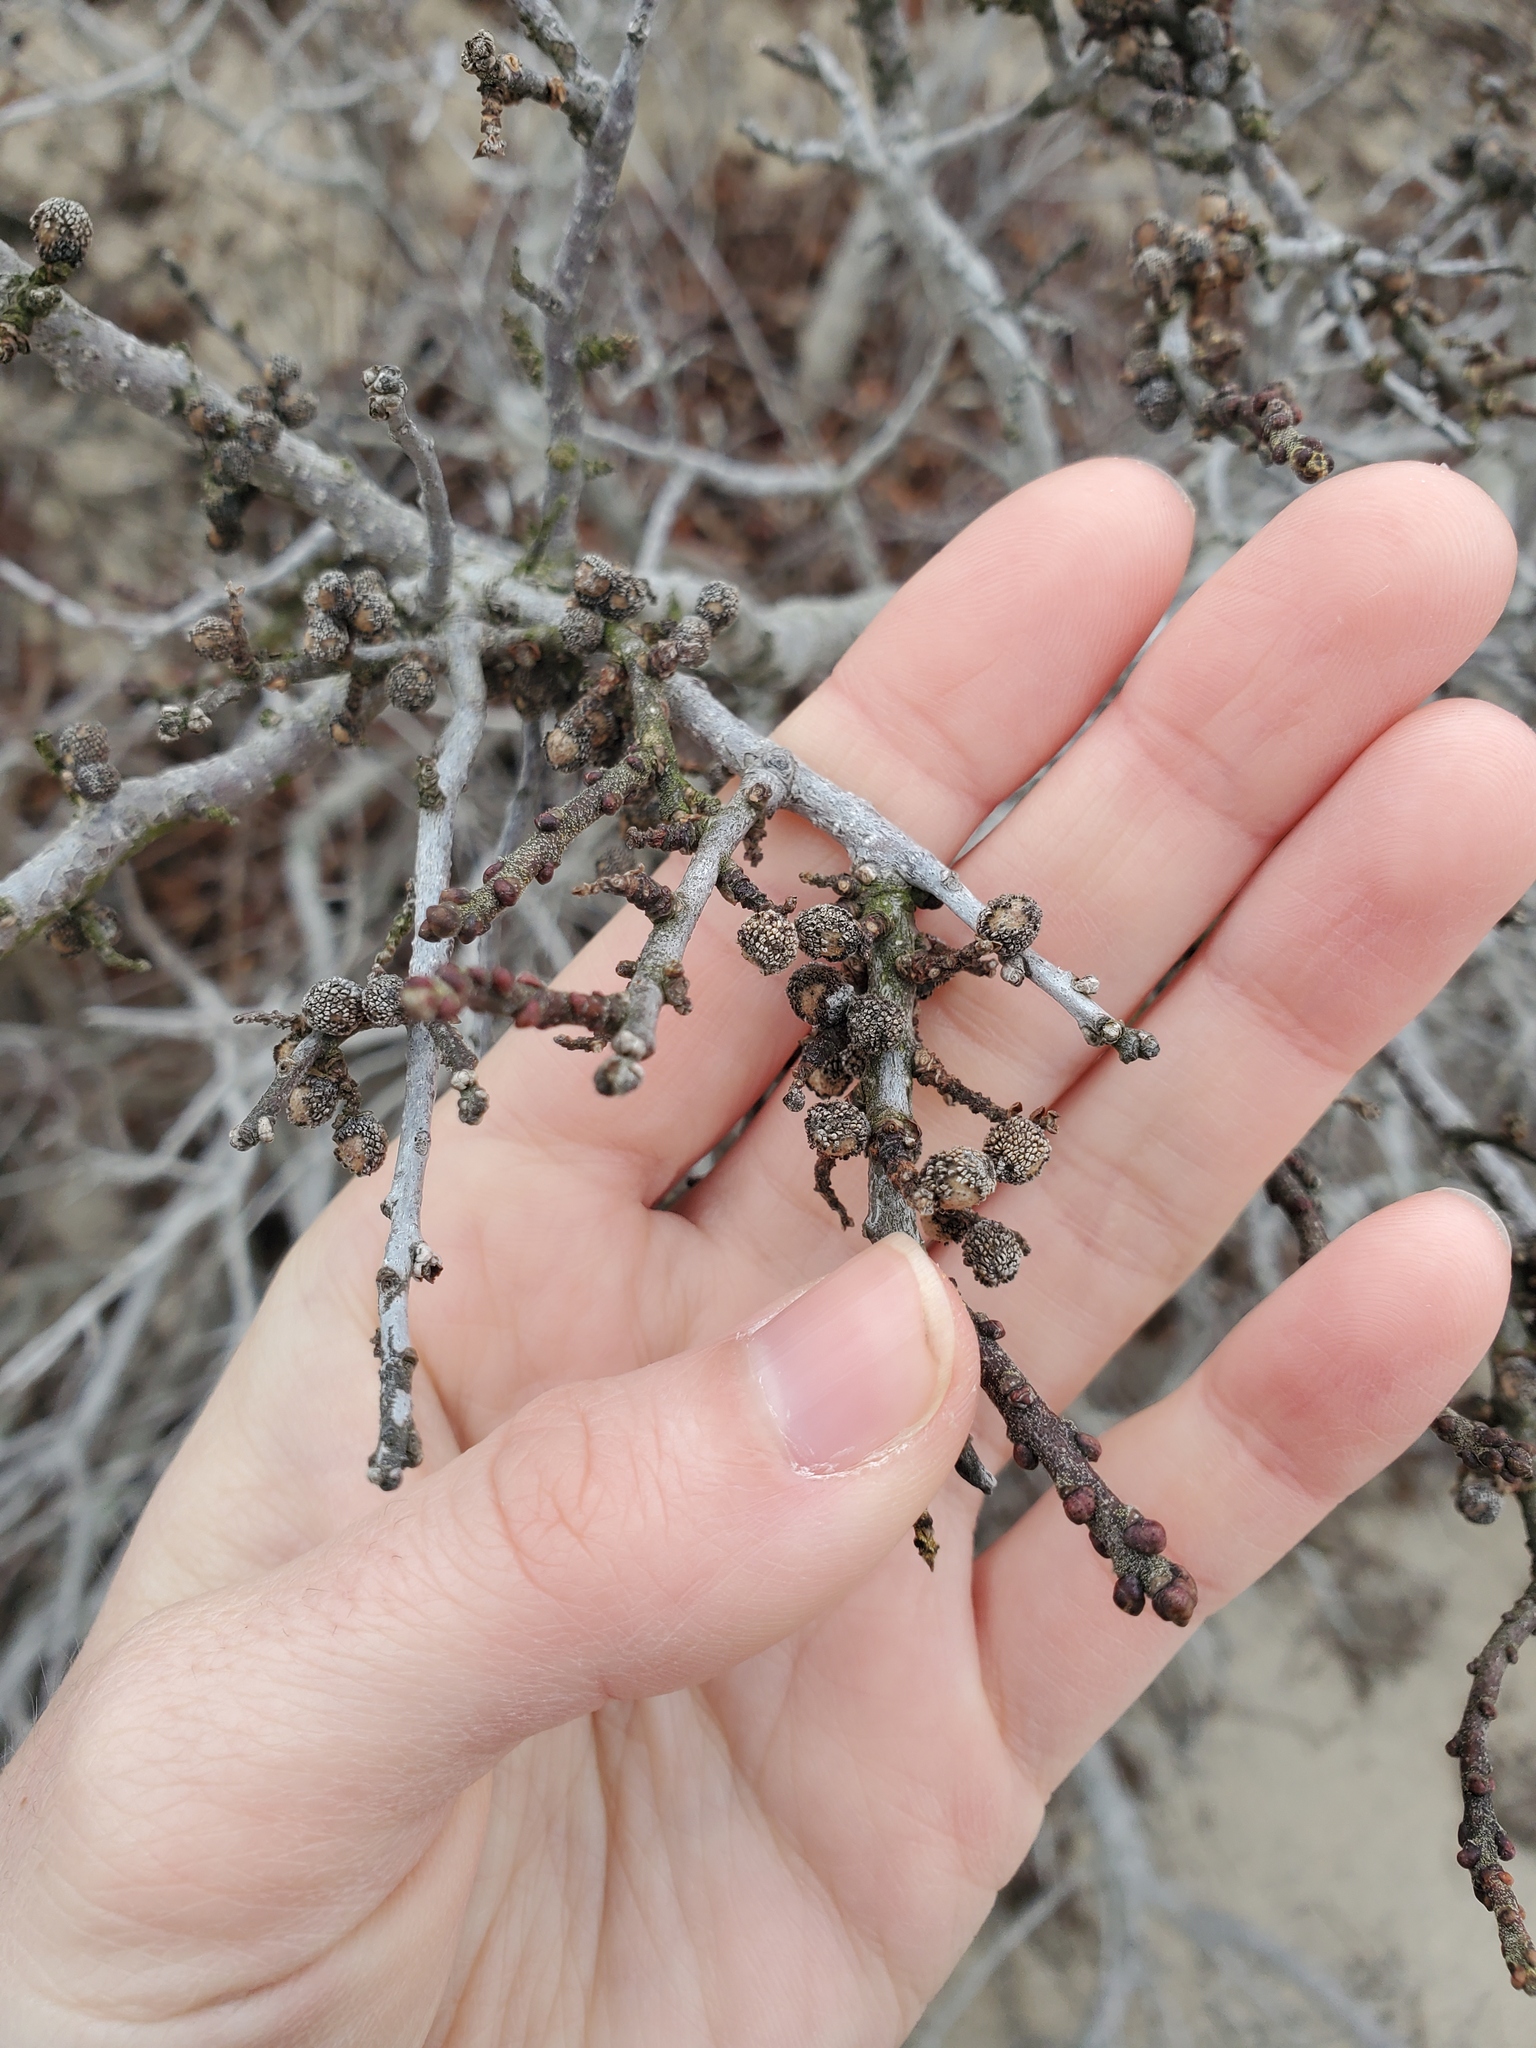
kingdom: Plantae
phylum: Tracheophyta
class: Magnoliopsida
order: Fagales
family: Myricaceae
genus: Morella
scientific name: Morella pensylvanica
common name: Northern bayberry
